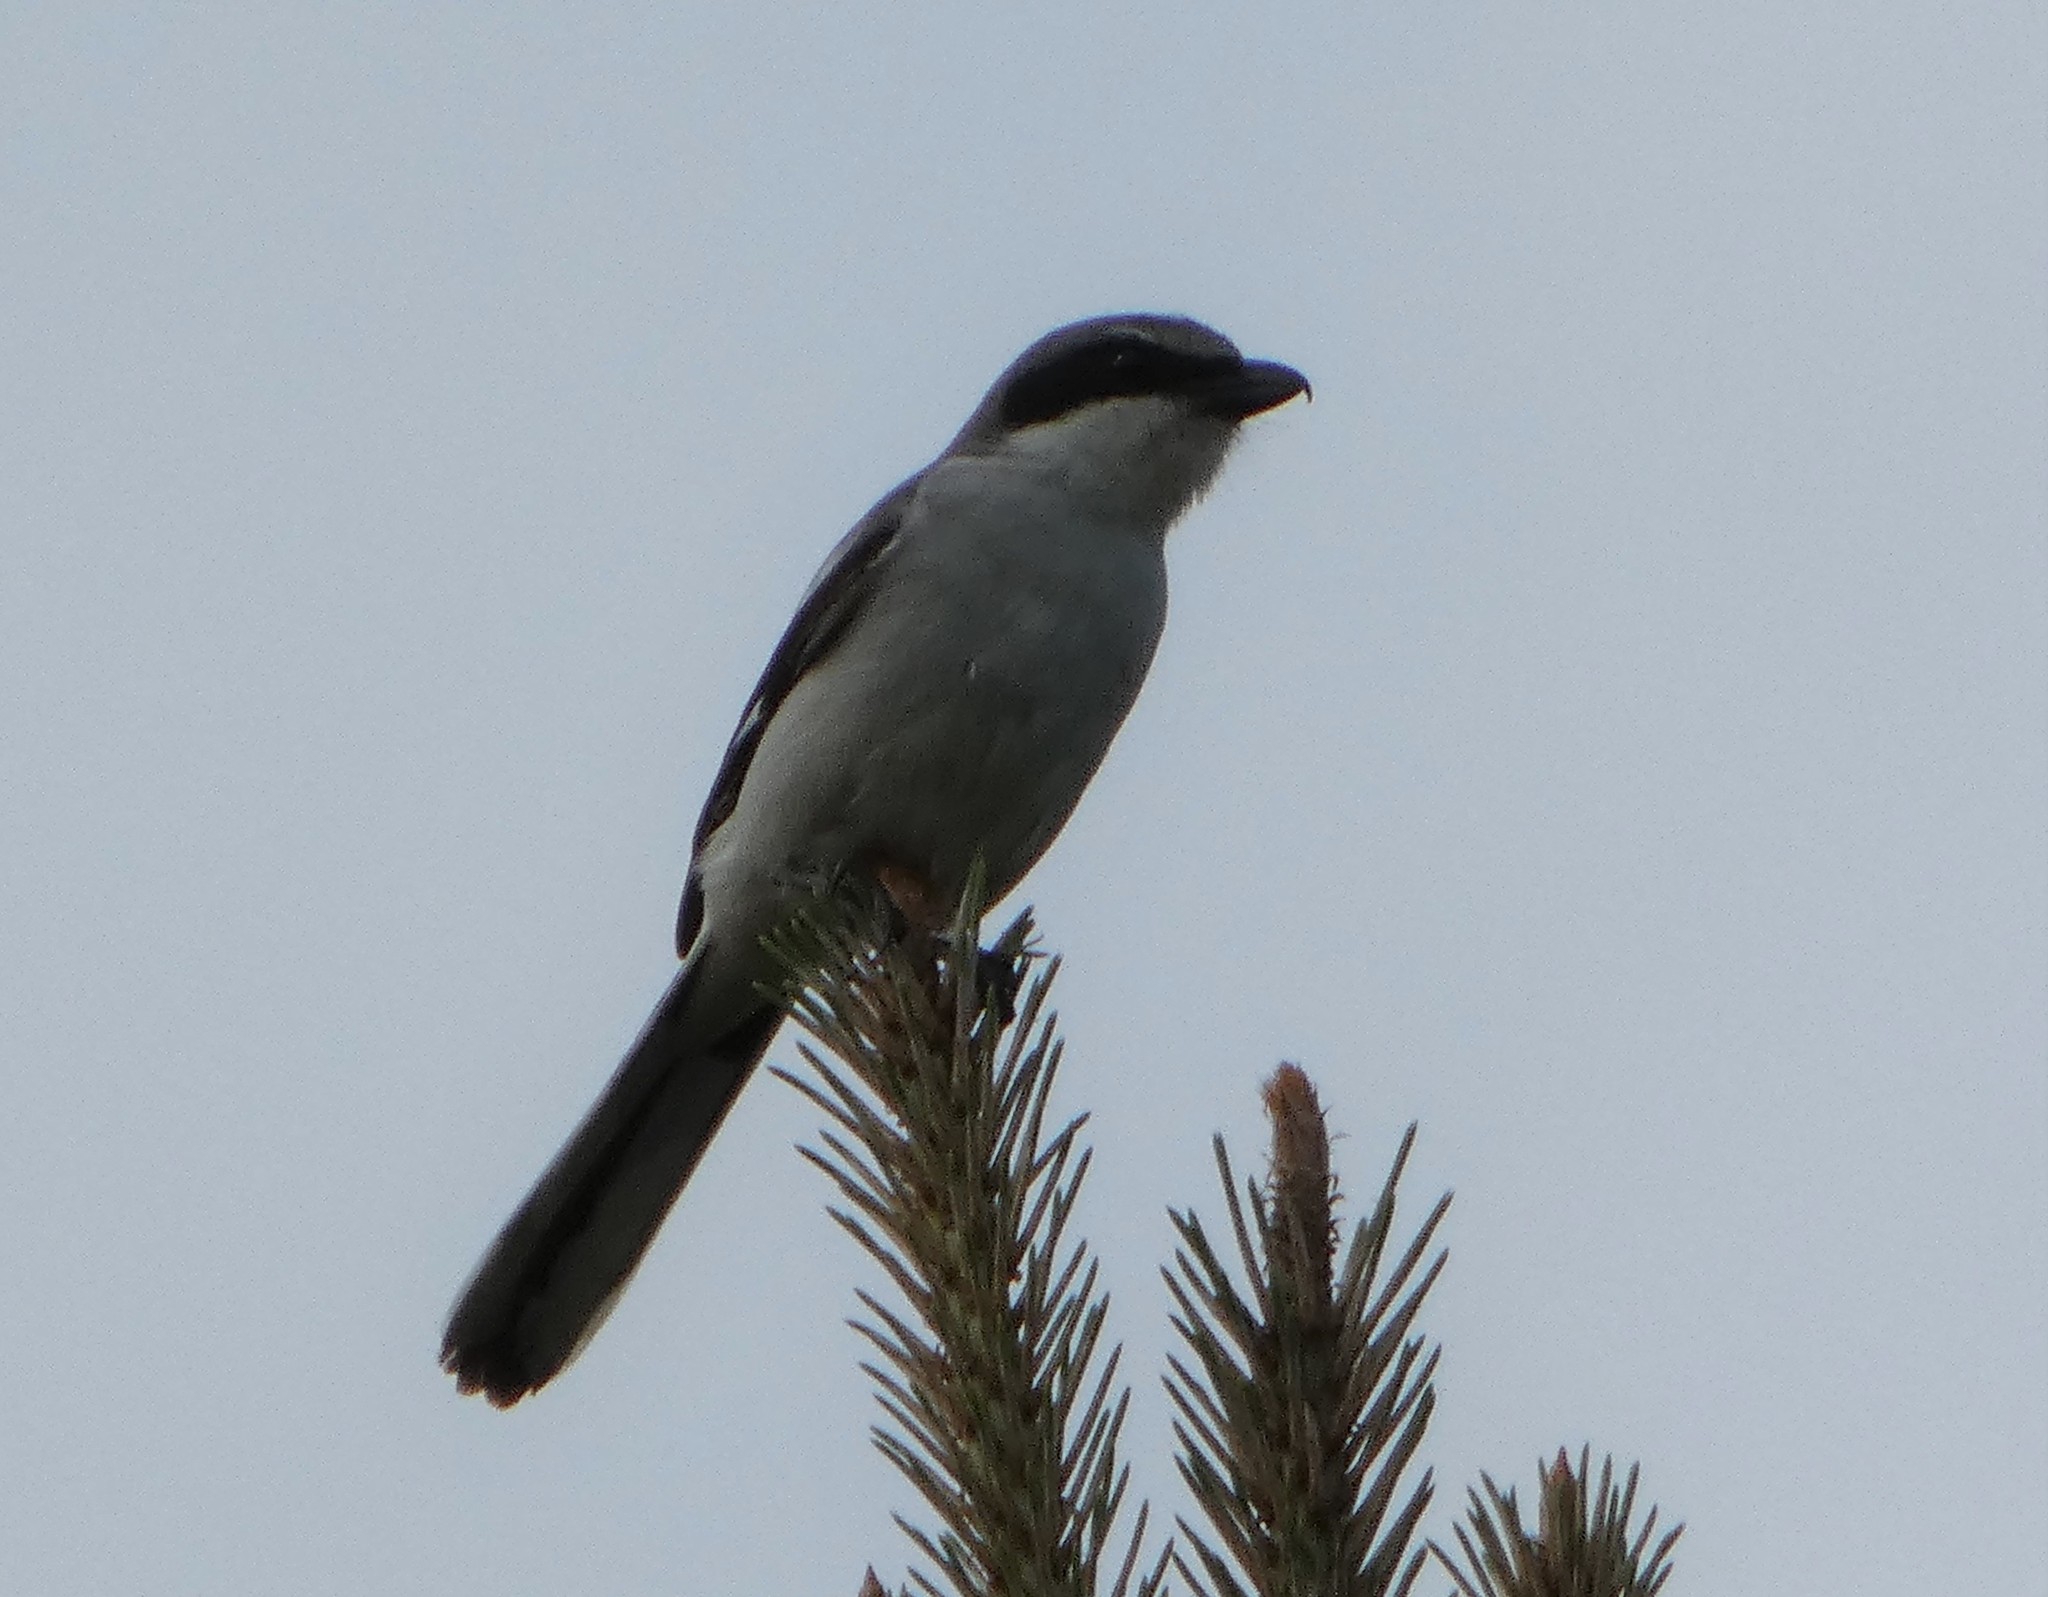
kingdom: Animalia
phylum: Chordata
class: Aves
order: Passeriformes
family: Laniidae
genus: Lanius
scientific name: Lanius ludovicianus
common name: Loggerhead shrike
